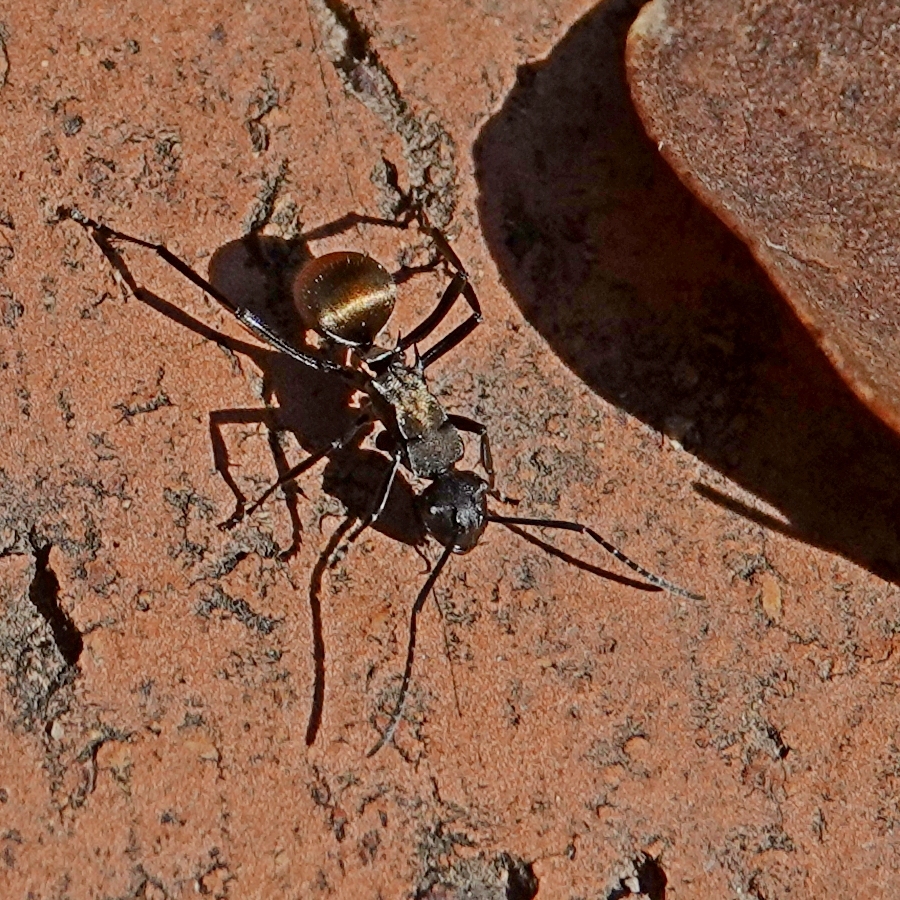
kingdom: Animalia
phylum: Arthropoda
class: Insecta
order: Hymenoptera
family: Formicidae
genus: Polyrhachis
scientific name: Polyrhachis ammon
